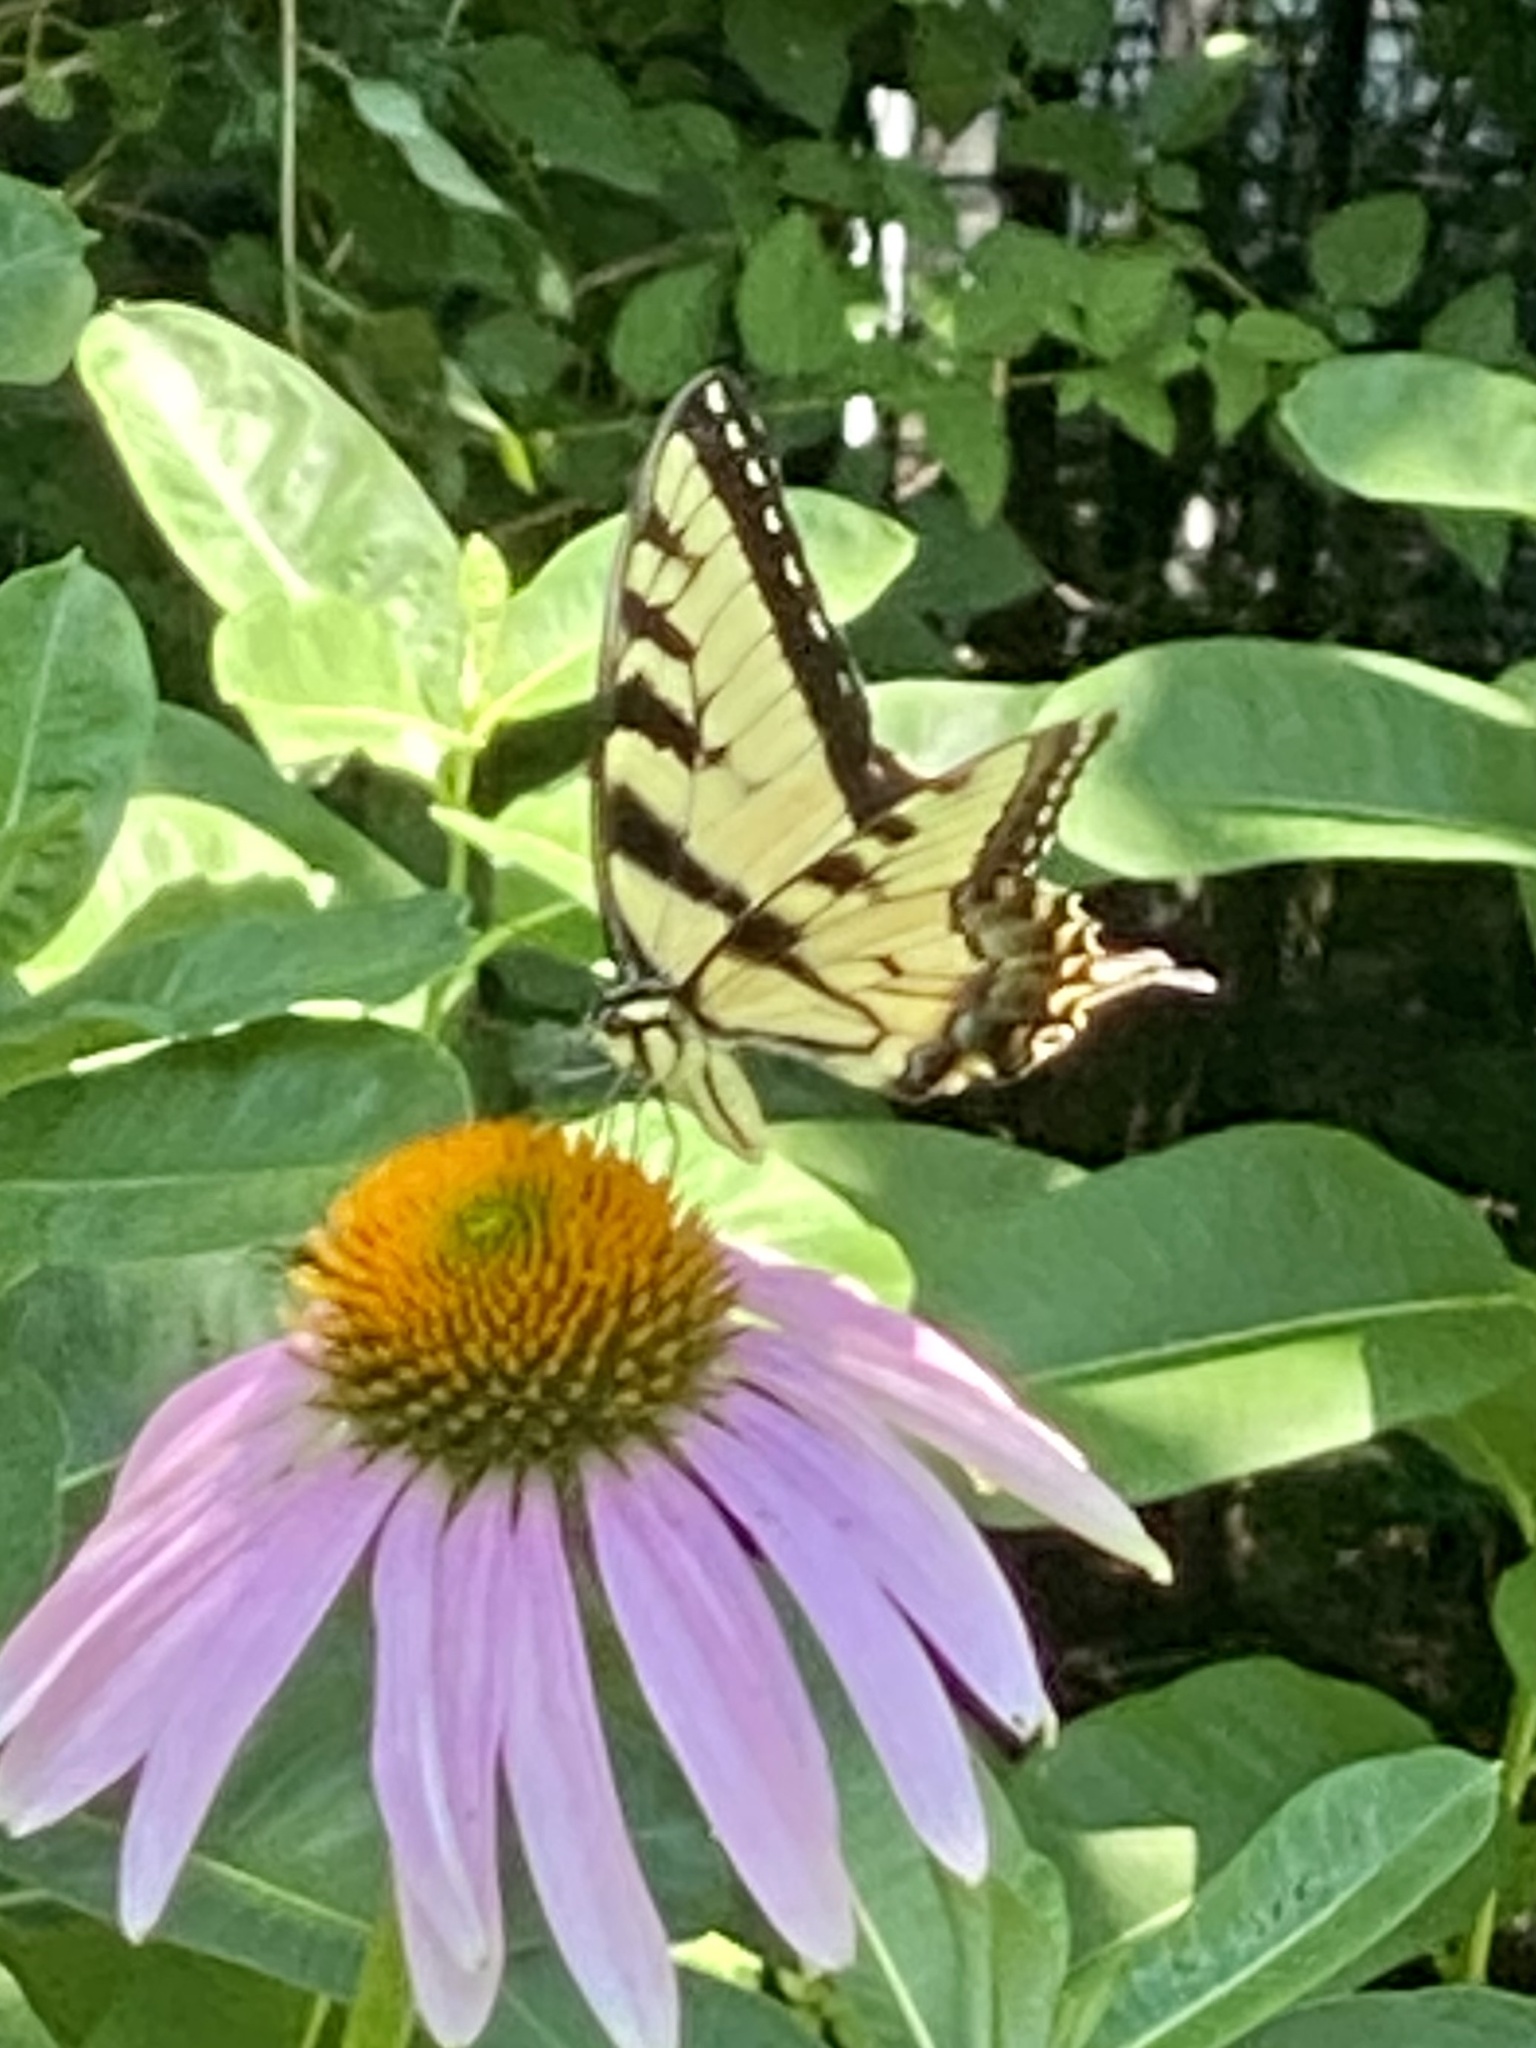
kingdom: Animalia
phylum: Arthropoda
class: Insecta
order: Lepidoptera
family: Papilionidae
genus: Papilio
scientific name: Papilio glaucus
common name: Tiger swallowtail
